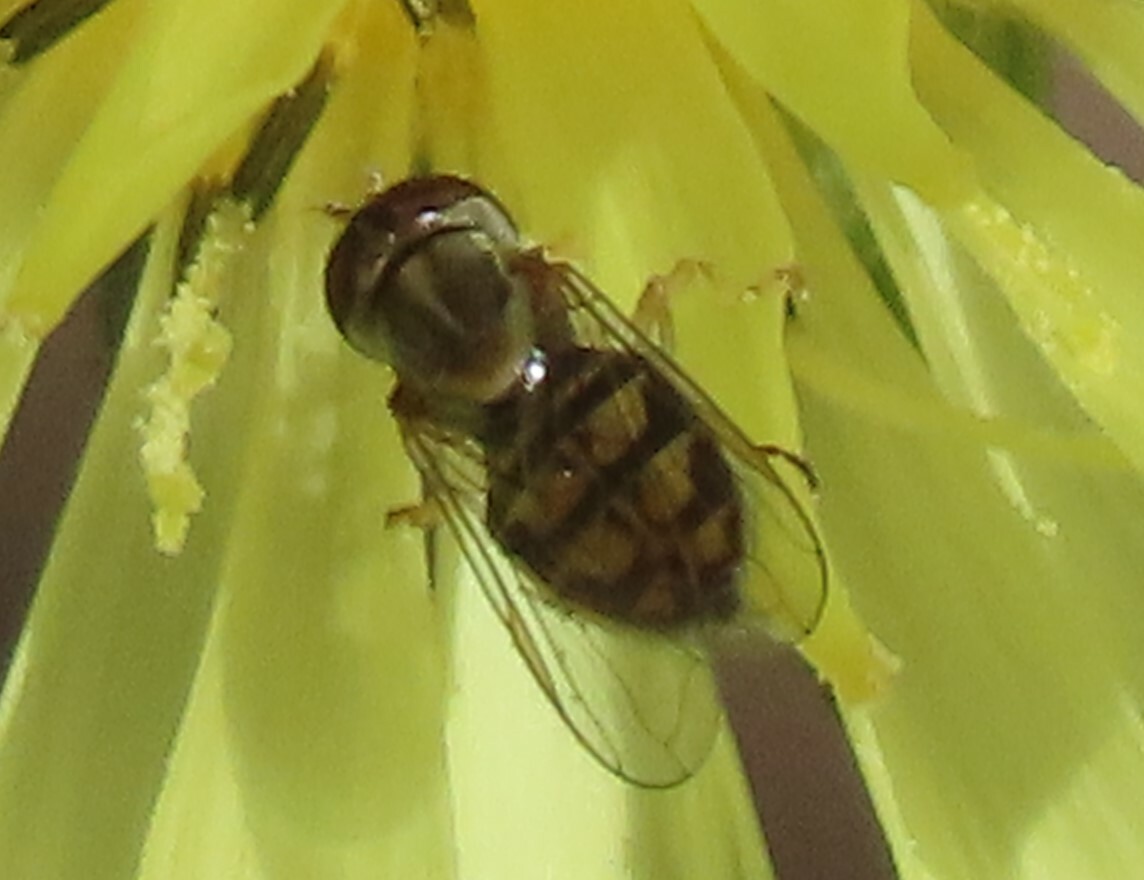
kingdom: Animalia
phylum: Arthropoda
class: Insecta
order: Diptera
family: Syrphidae
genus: Toxomerus
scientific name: Toxomerus marginatus
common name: Syrphid fly
